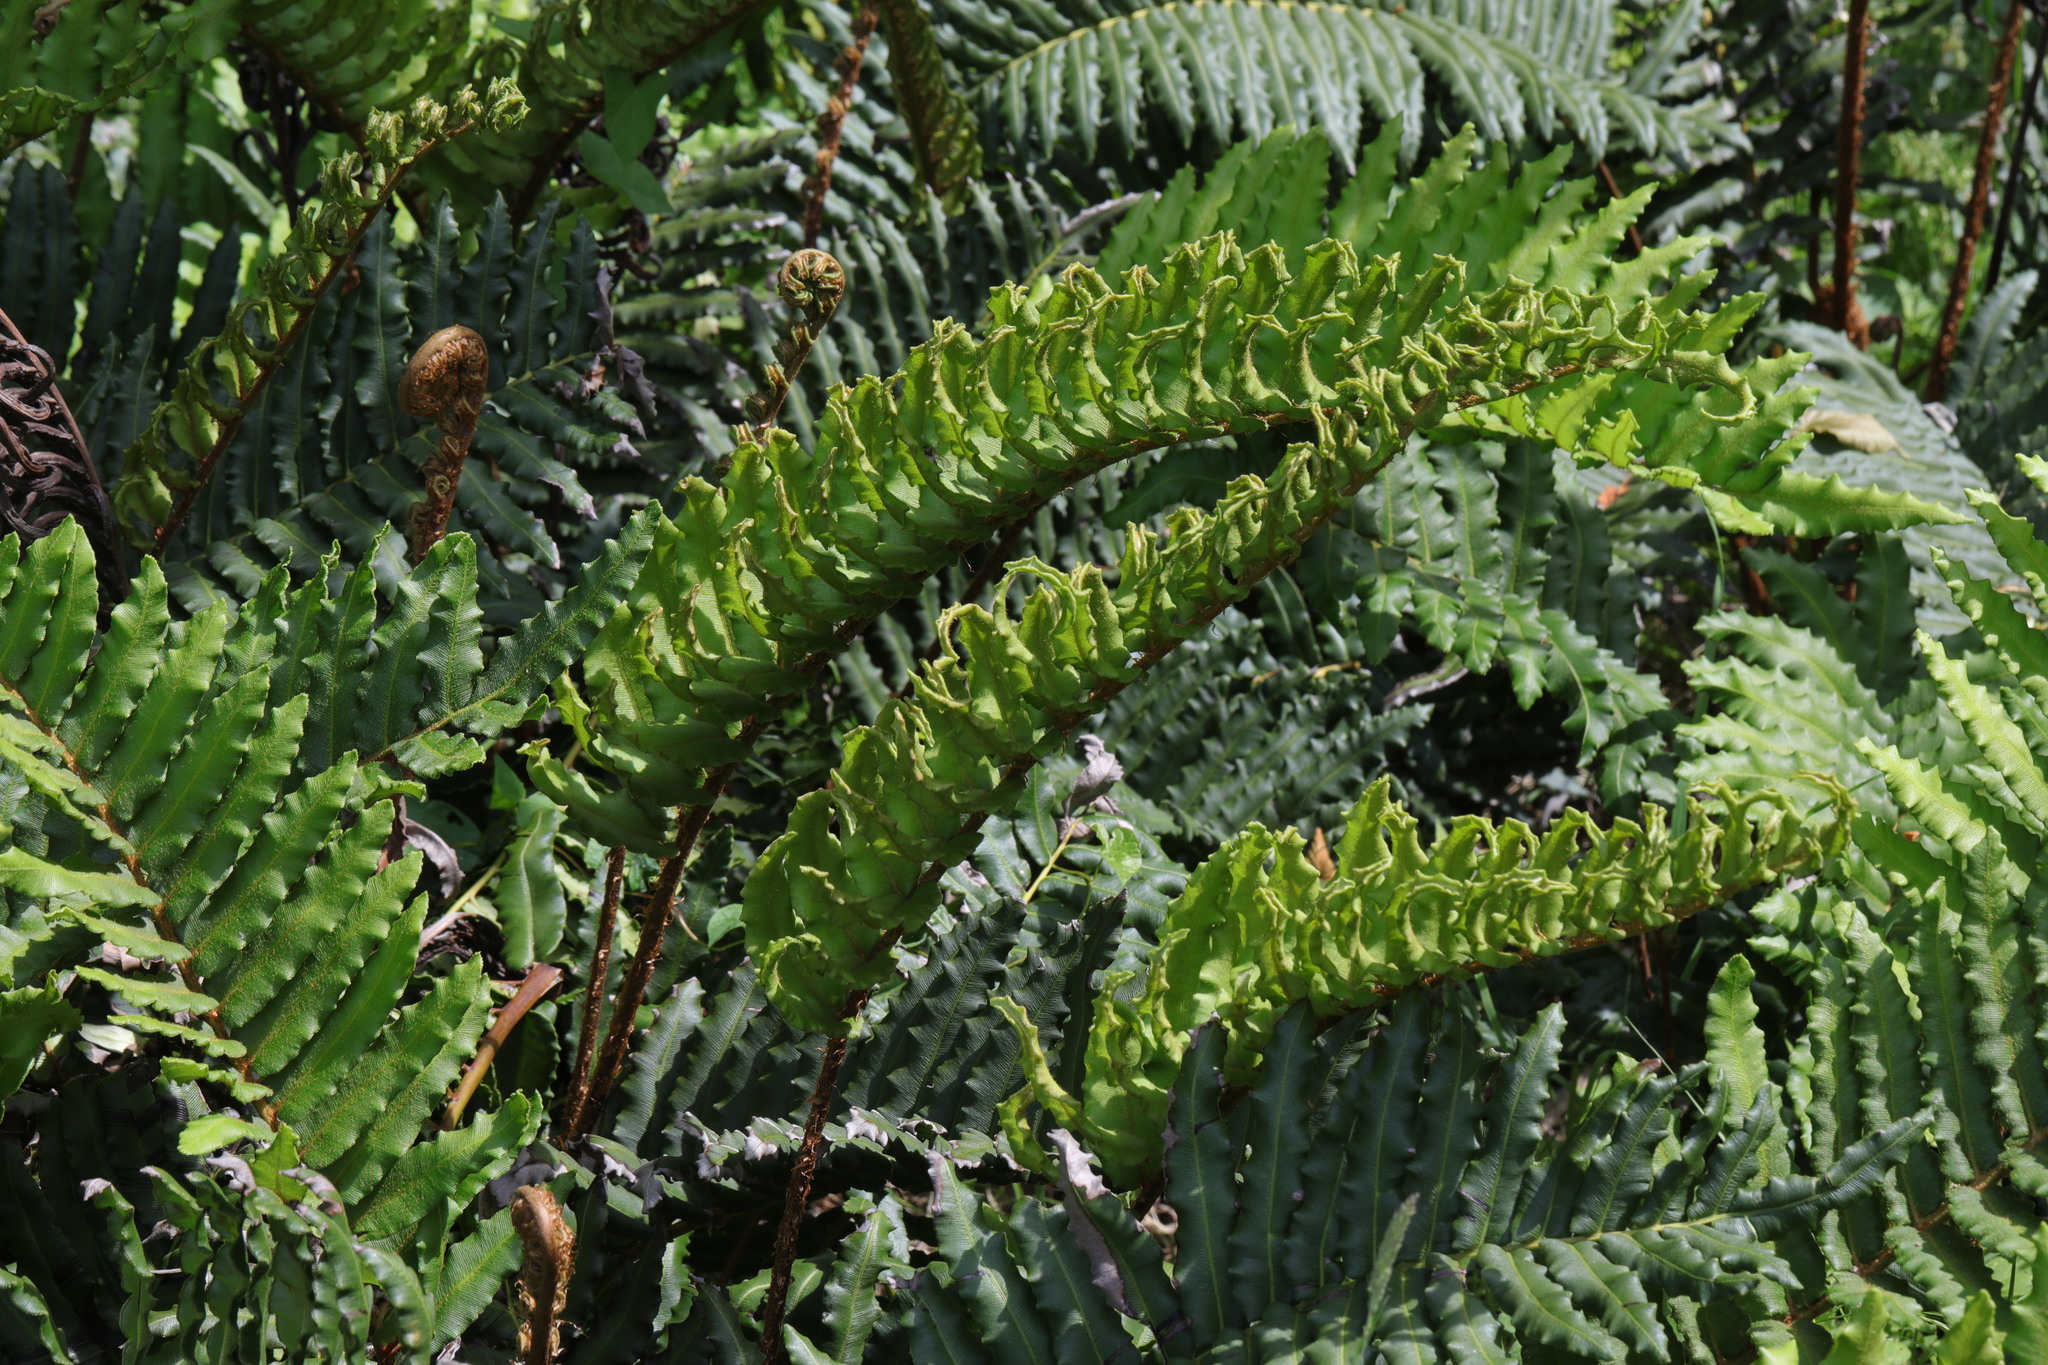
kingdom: Plantae
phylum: Tracheophyta
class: Polypodiopsida
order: Polypodiales
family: Blechnaceae
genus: Parablechnum
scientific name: Parablechnum cordatum
